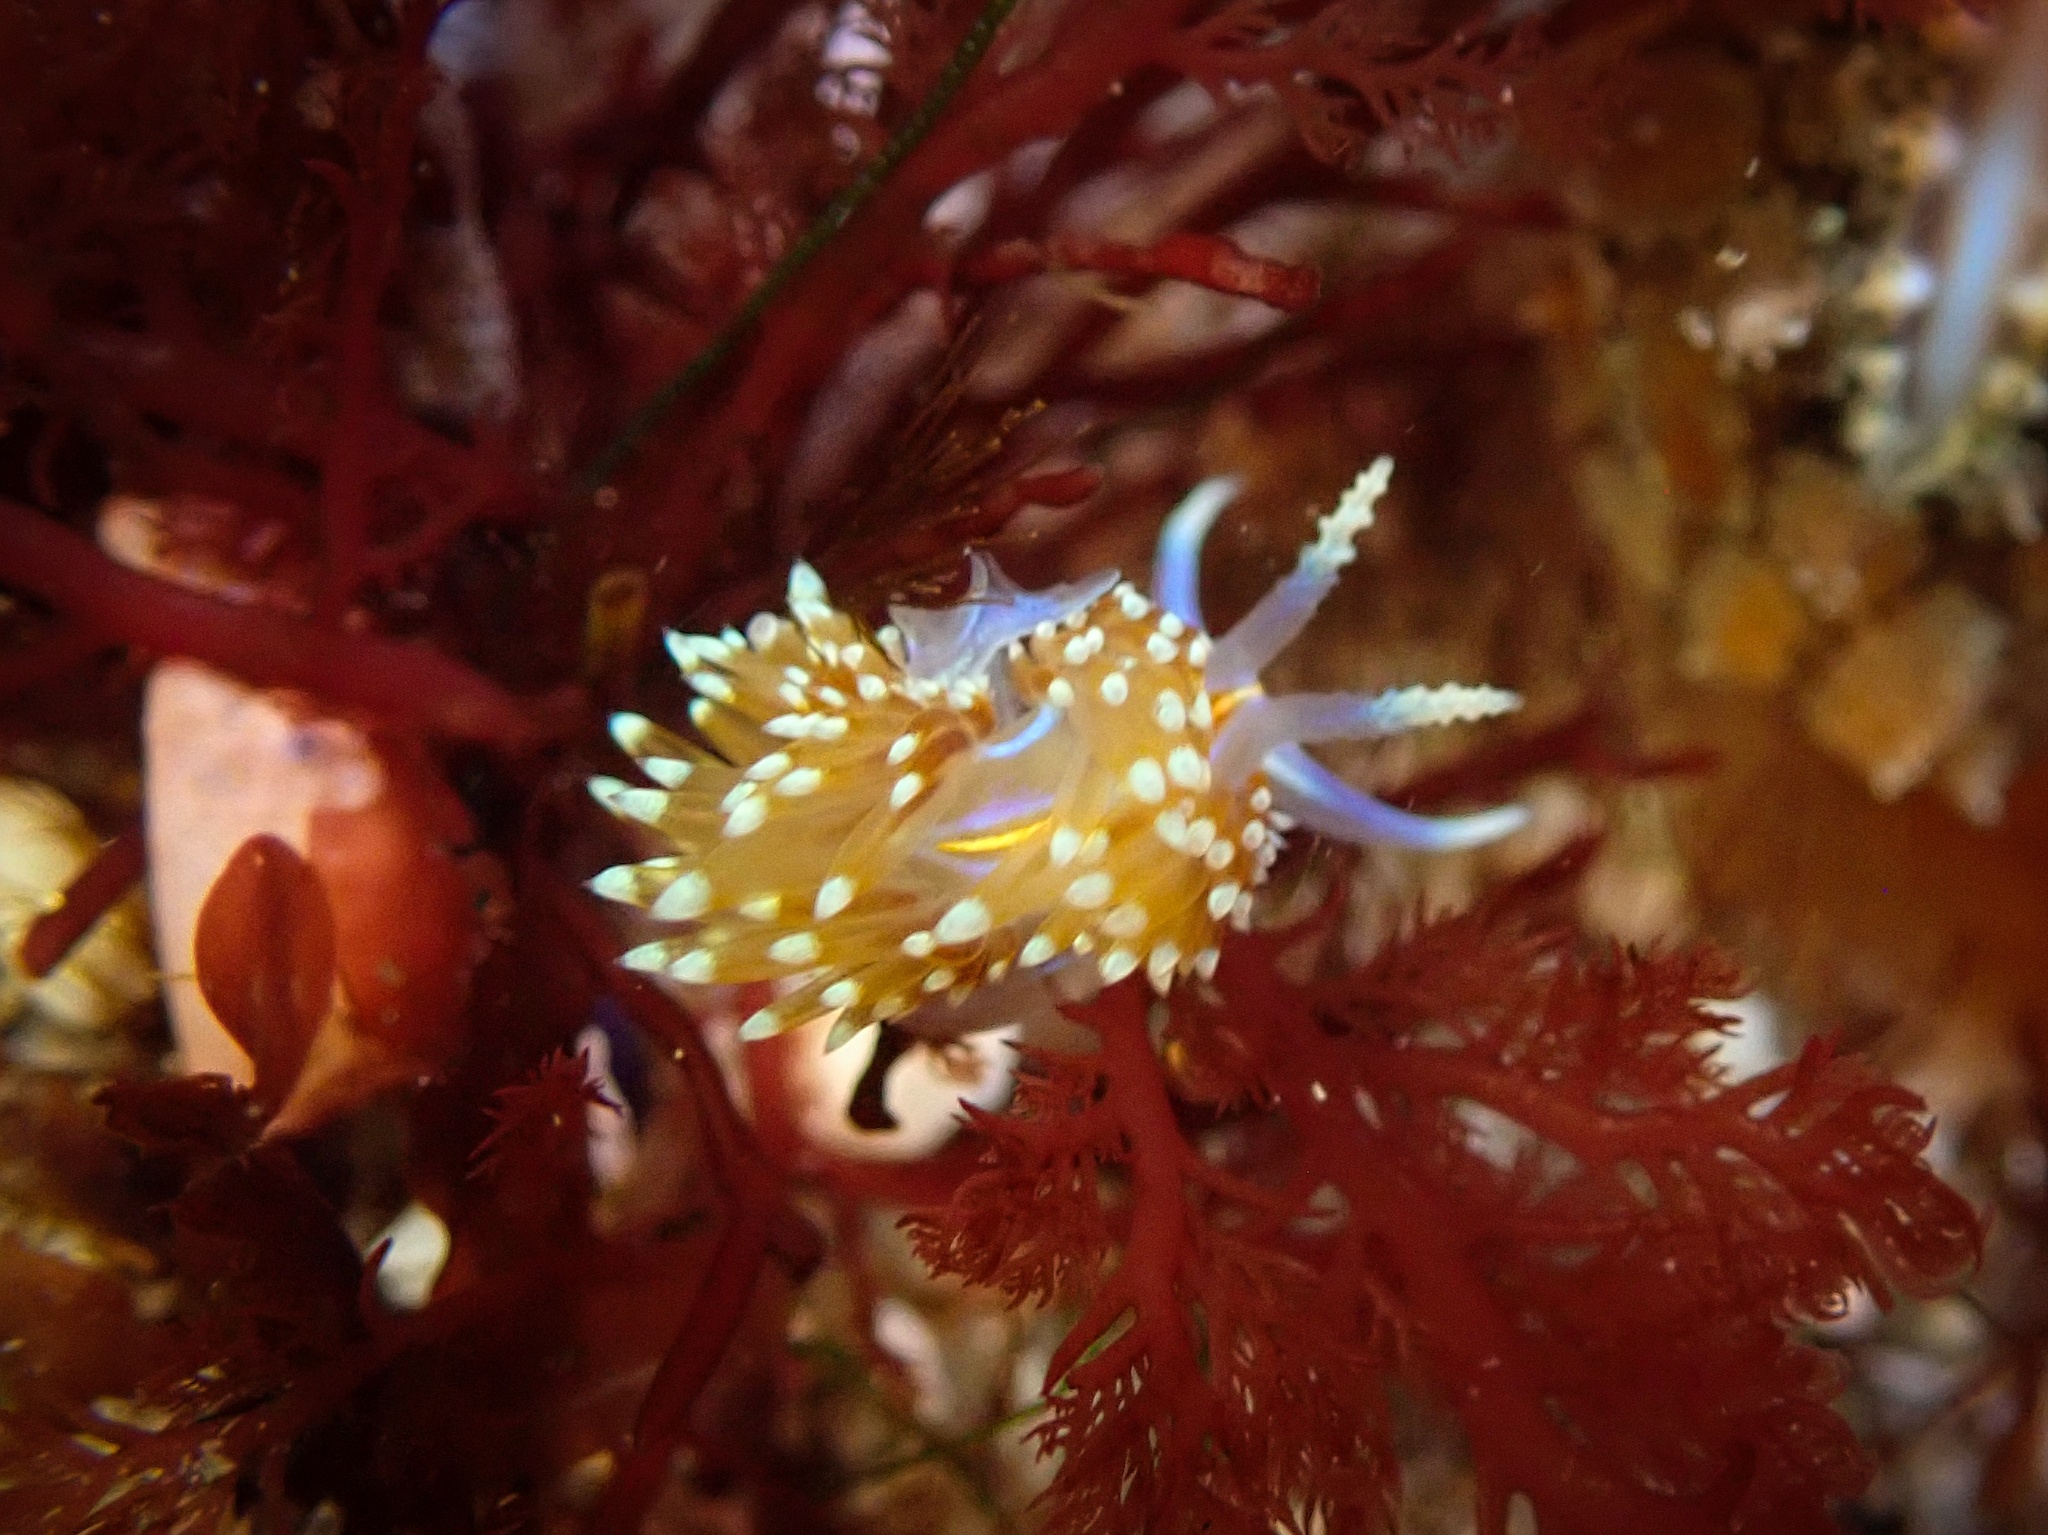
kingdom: Animalia
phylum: Mollusca
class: Gastropoda
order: Nudibranchia
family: Myrrhinidae
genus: Hermissenda
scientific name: Hermissenda opalescens
